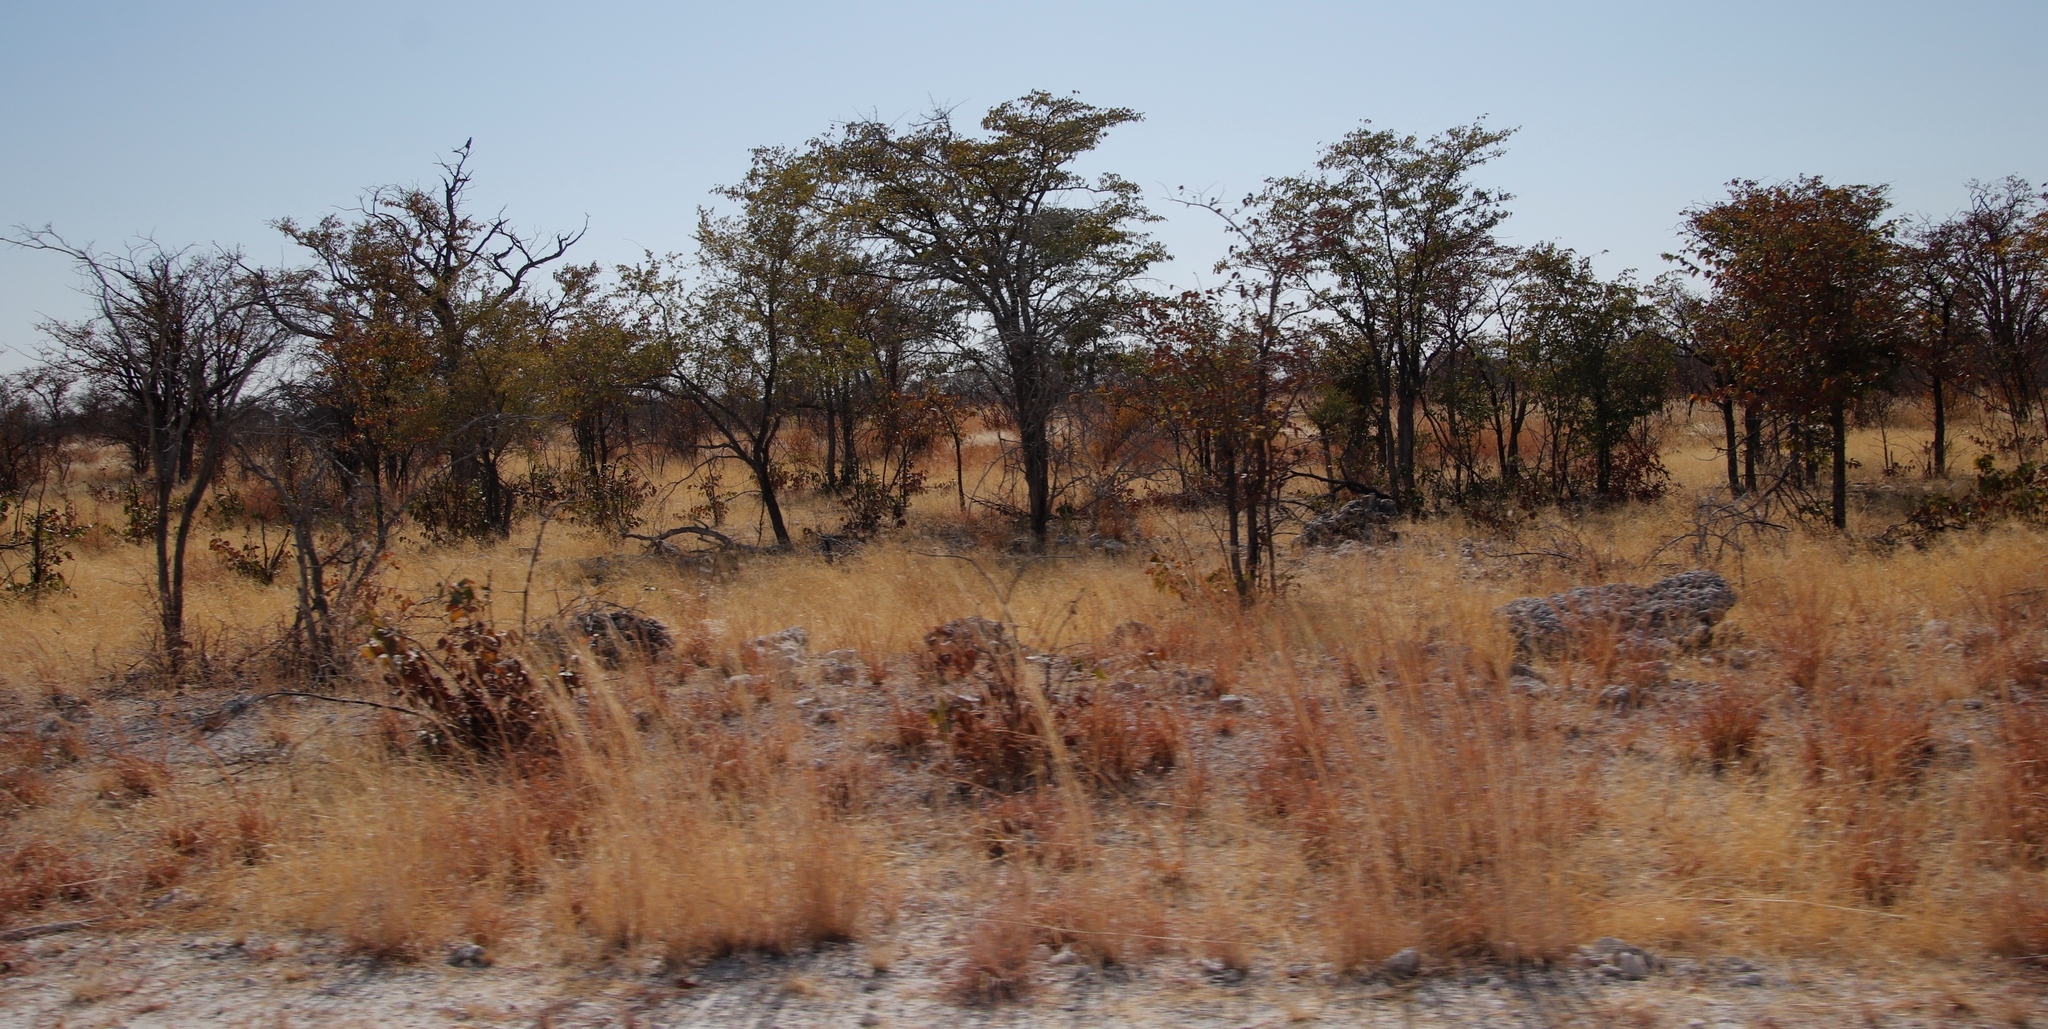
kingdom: Plantae
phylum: Tracheophyta
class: Magnoliopsida
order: Fabales
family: Fabaceae
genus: Colophospermum
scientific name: Colophospermum mopane
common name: Mopane
